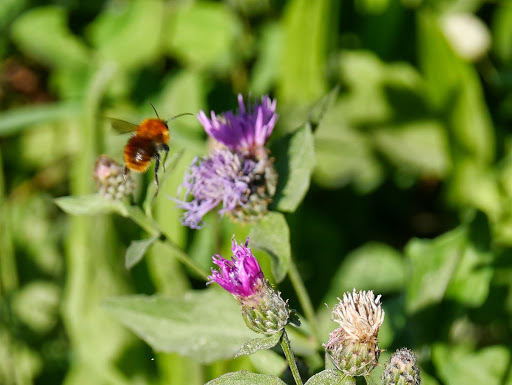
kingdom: Animalia
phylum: Arthropoda
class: Insecta
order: Hymenoptera
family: Apidae
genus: Bombus
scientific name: Bombus pascuorum
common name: Common carder bee
